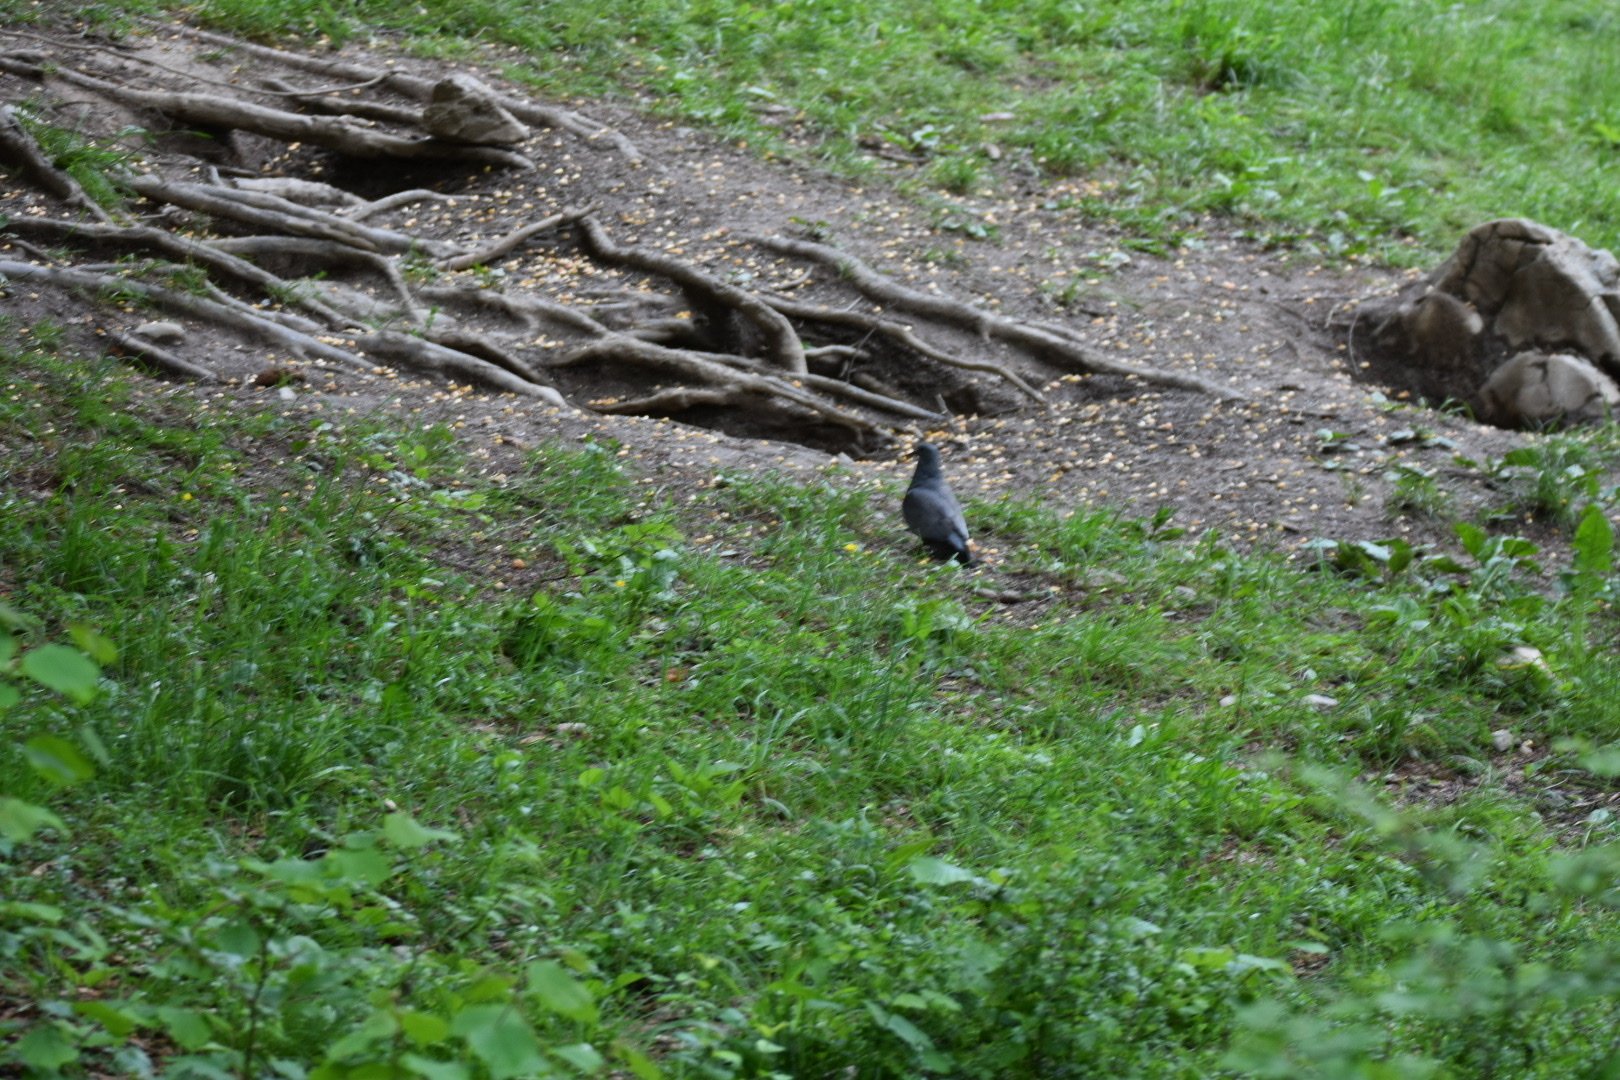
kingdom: Animalia
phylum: Chordata
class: Aves
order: Columbiformes
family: Columbidae
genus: Columba
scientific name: Columba oenas
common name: Stock dove
